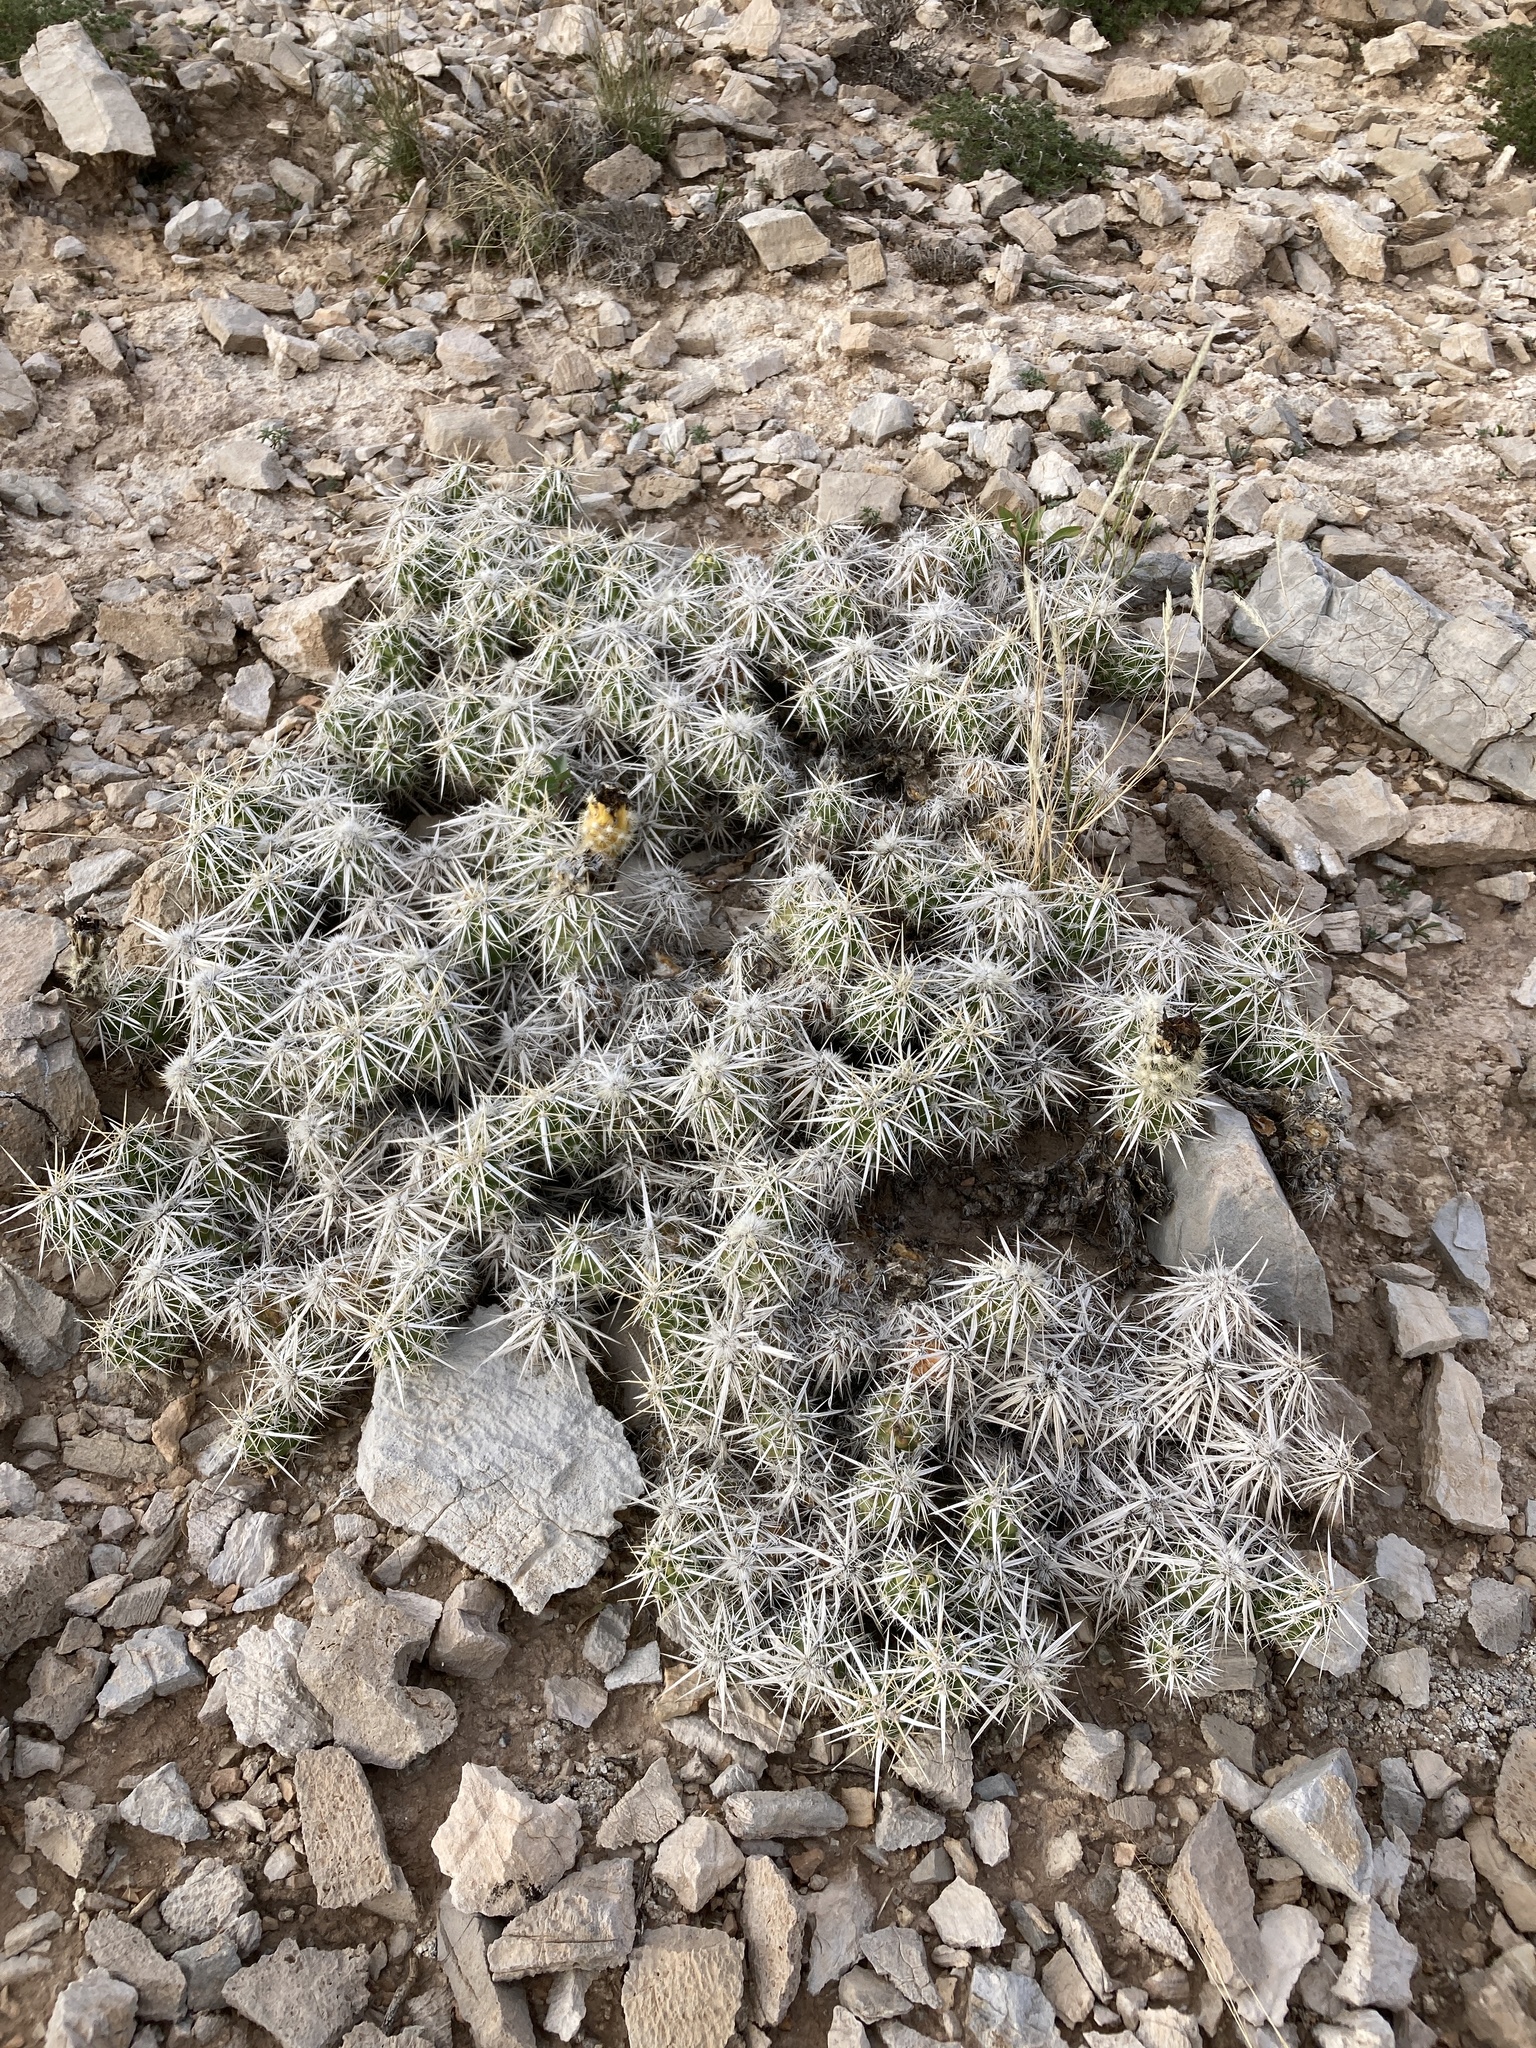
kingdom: Plantae
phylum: Tracheophyta
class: Magnoliopsida
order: Caryophyllales
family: Cactaceae
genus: Grusonia
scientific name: Grusonia clavata
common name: Club cholla
